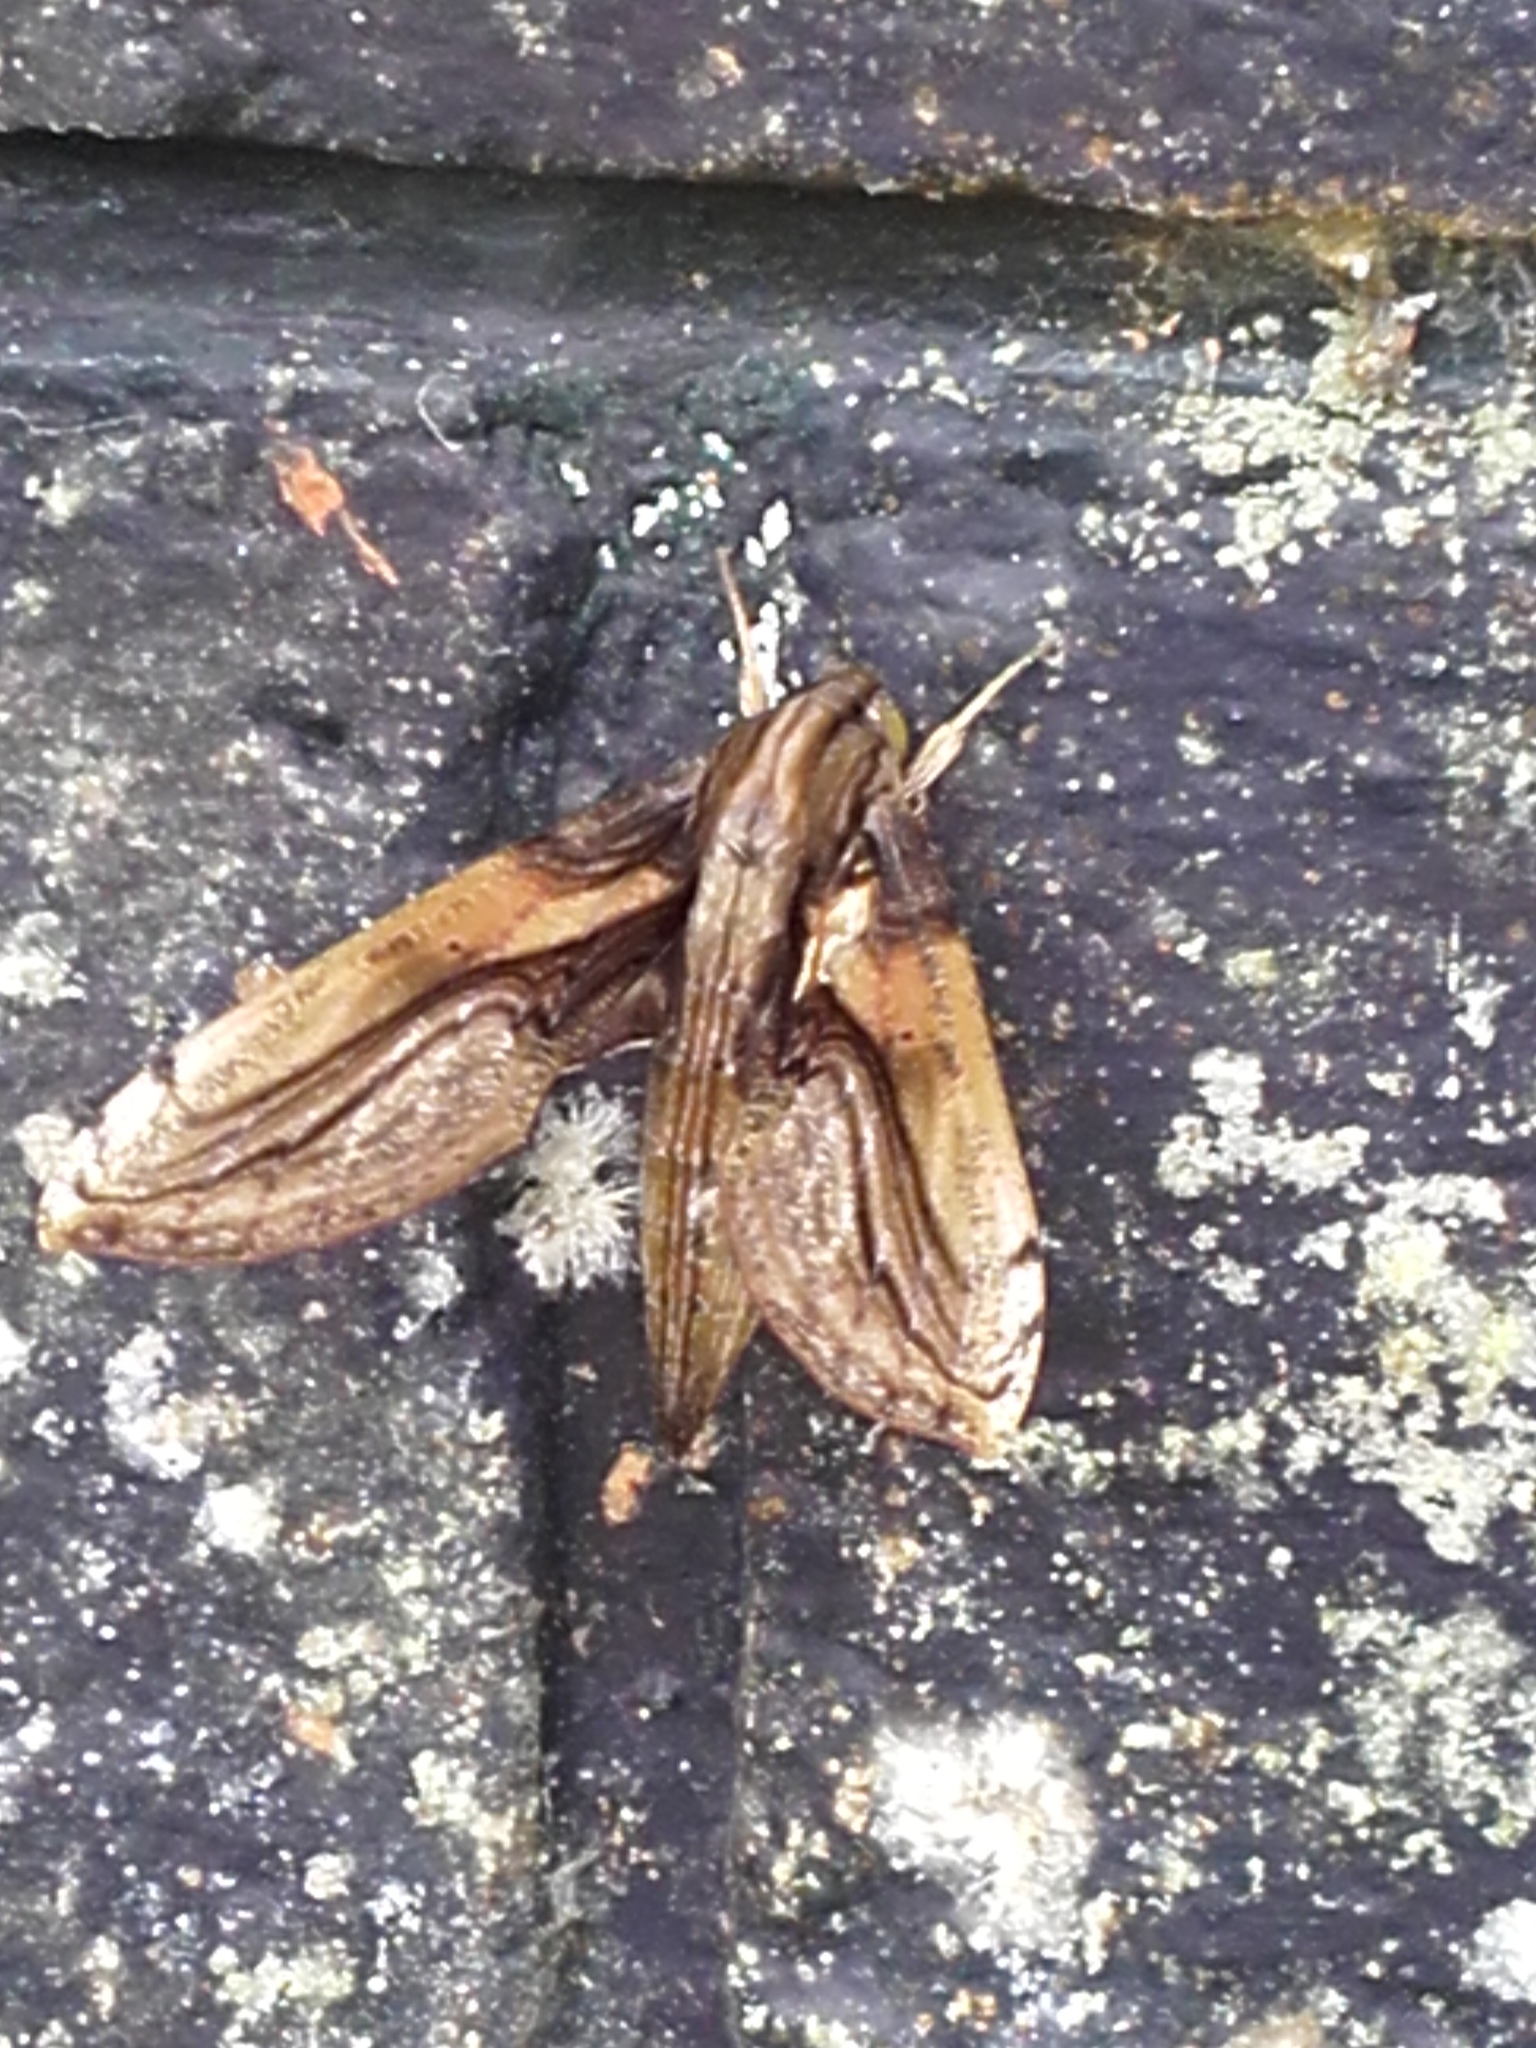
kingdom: Animalia
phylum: Arthropoda
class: Insecta
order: Lepidoptera
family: Sphingidae
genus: Xylophanes
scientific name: Xylophanes media
